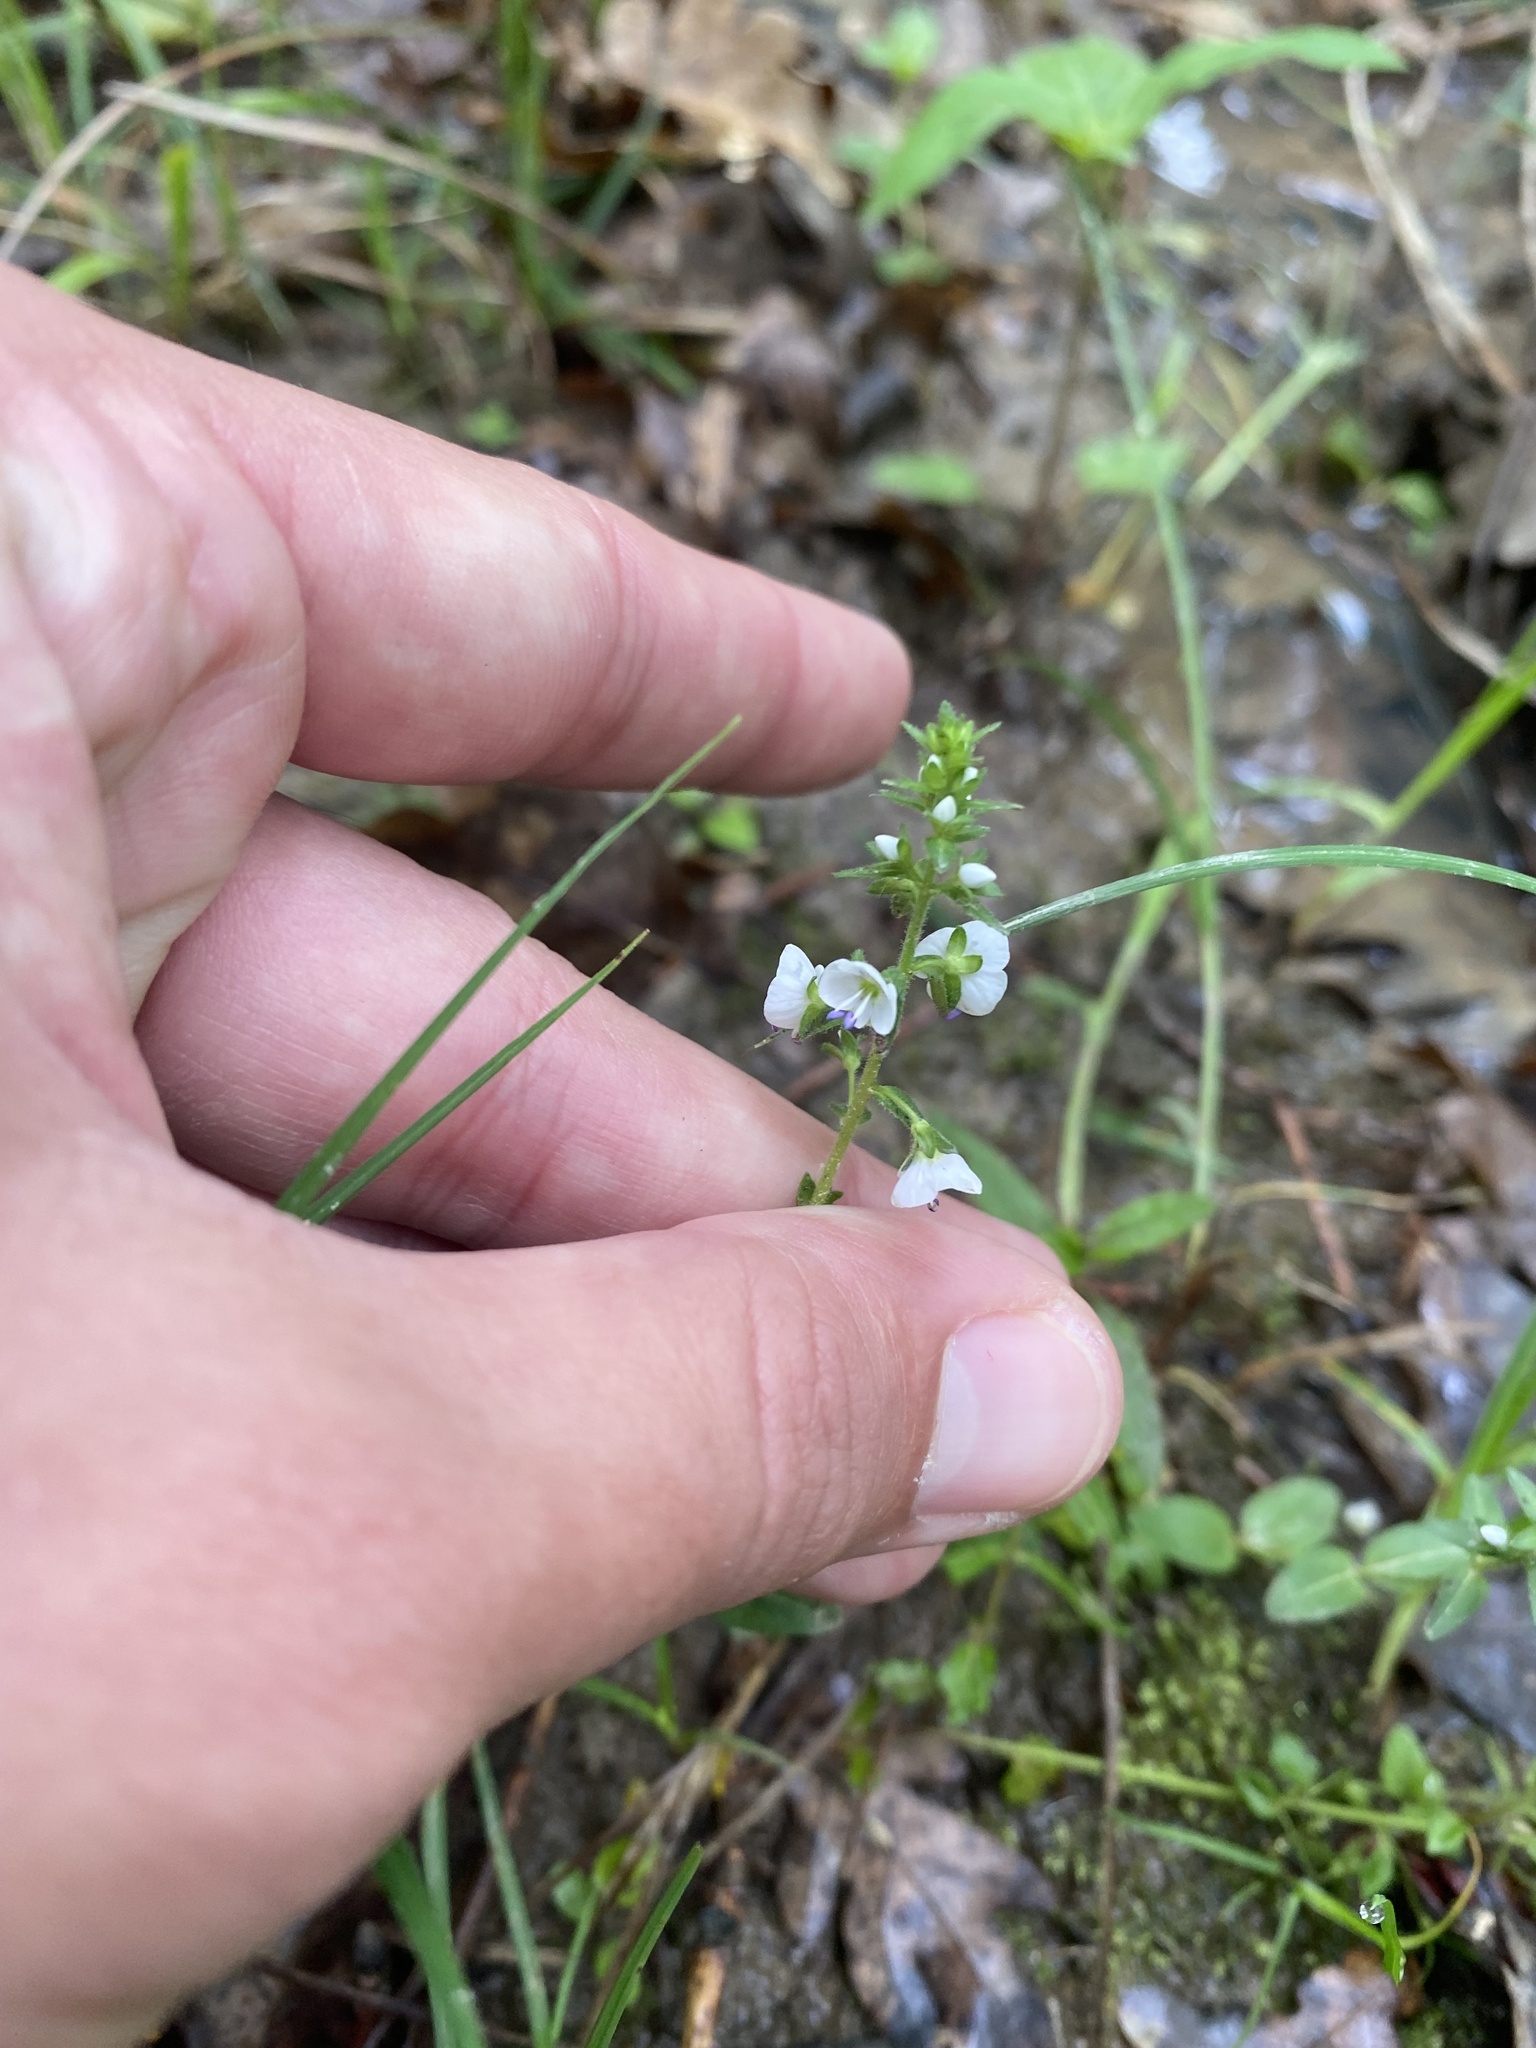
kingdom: Plantae
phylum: Tracheophyta
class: Magnoliopsida
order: Lamiales
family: Plantaginaceae
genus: Veronica
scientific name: Veronica serpyllifolia
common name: Thyme-leaved speedwell
